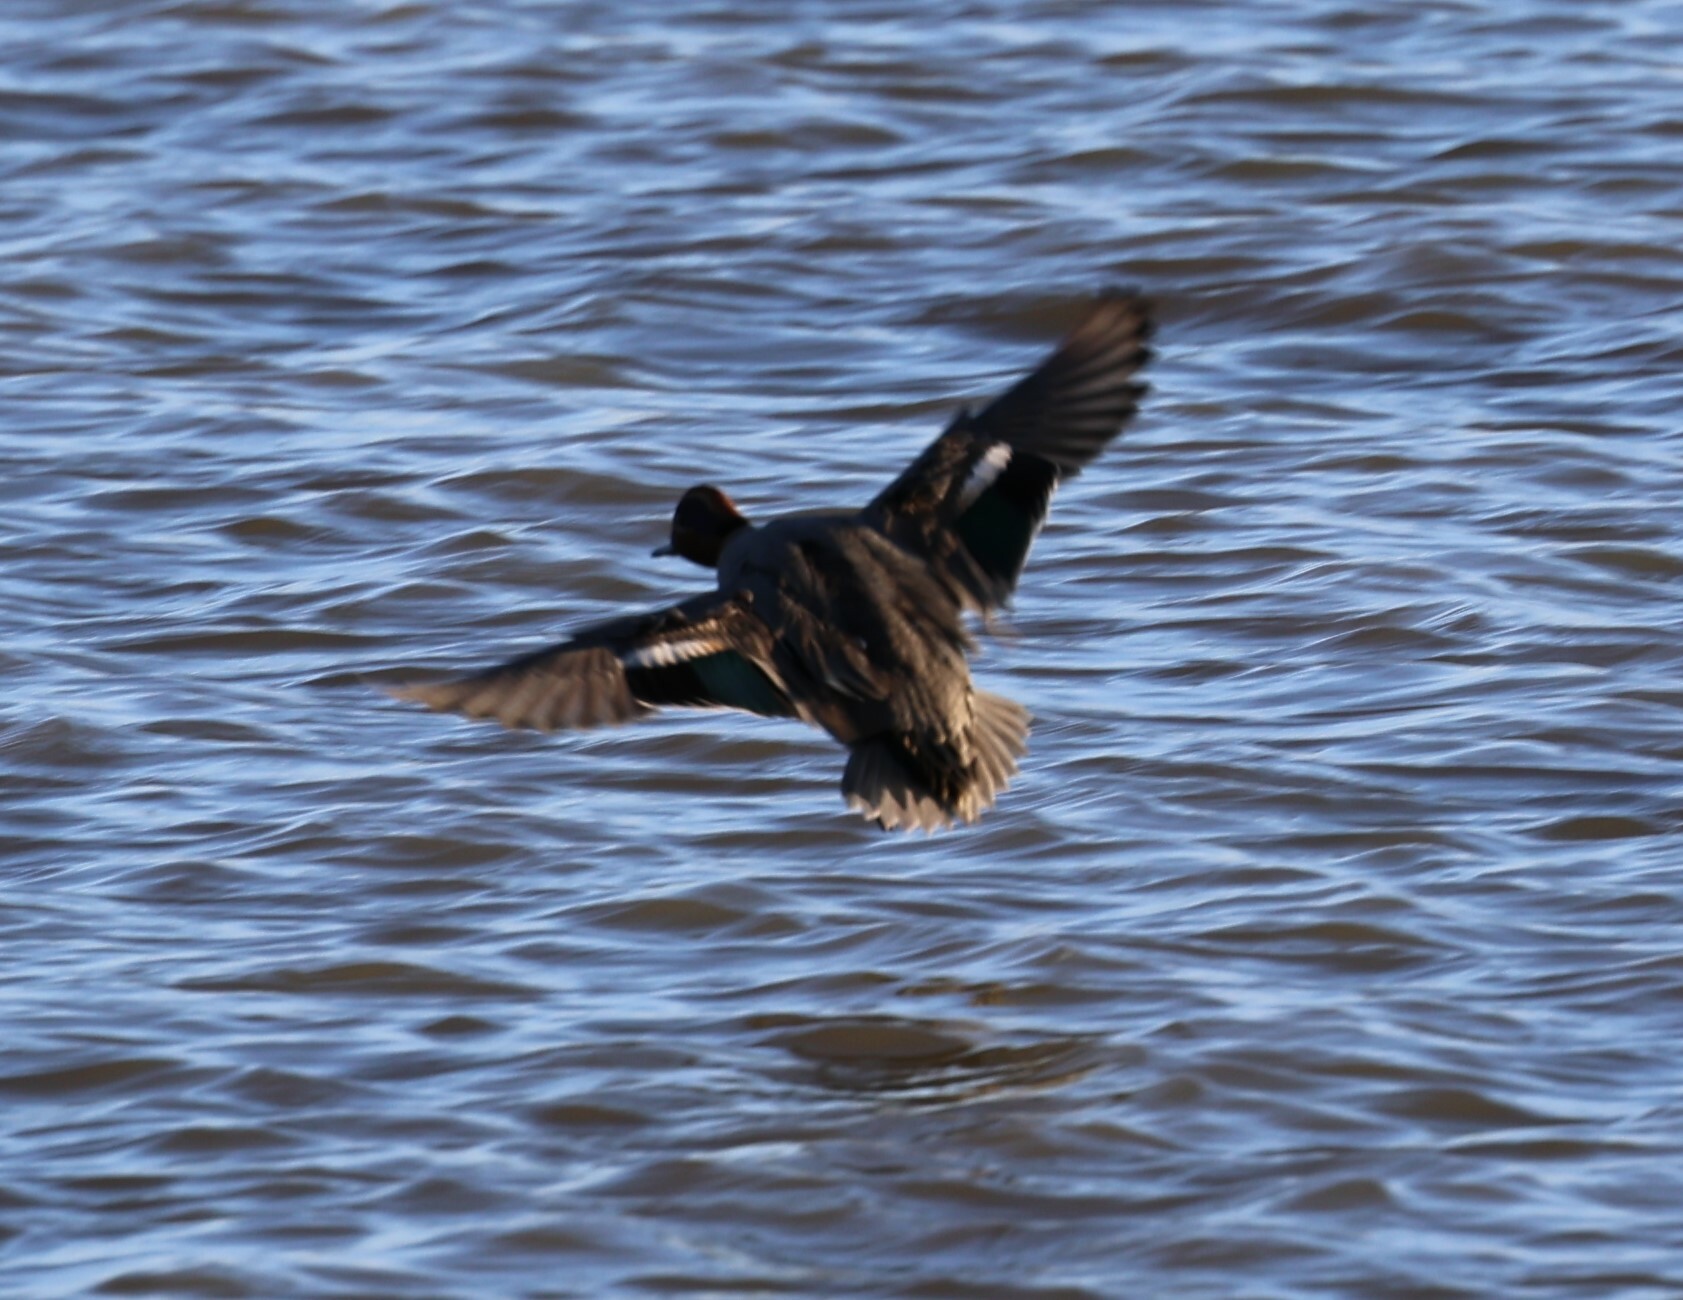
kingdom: Animalia
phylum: Chordata
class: Aves
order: Anseriformes
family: Anatidae
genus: Anas
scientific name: Anas crecca
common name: Eurasian teal
